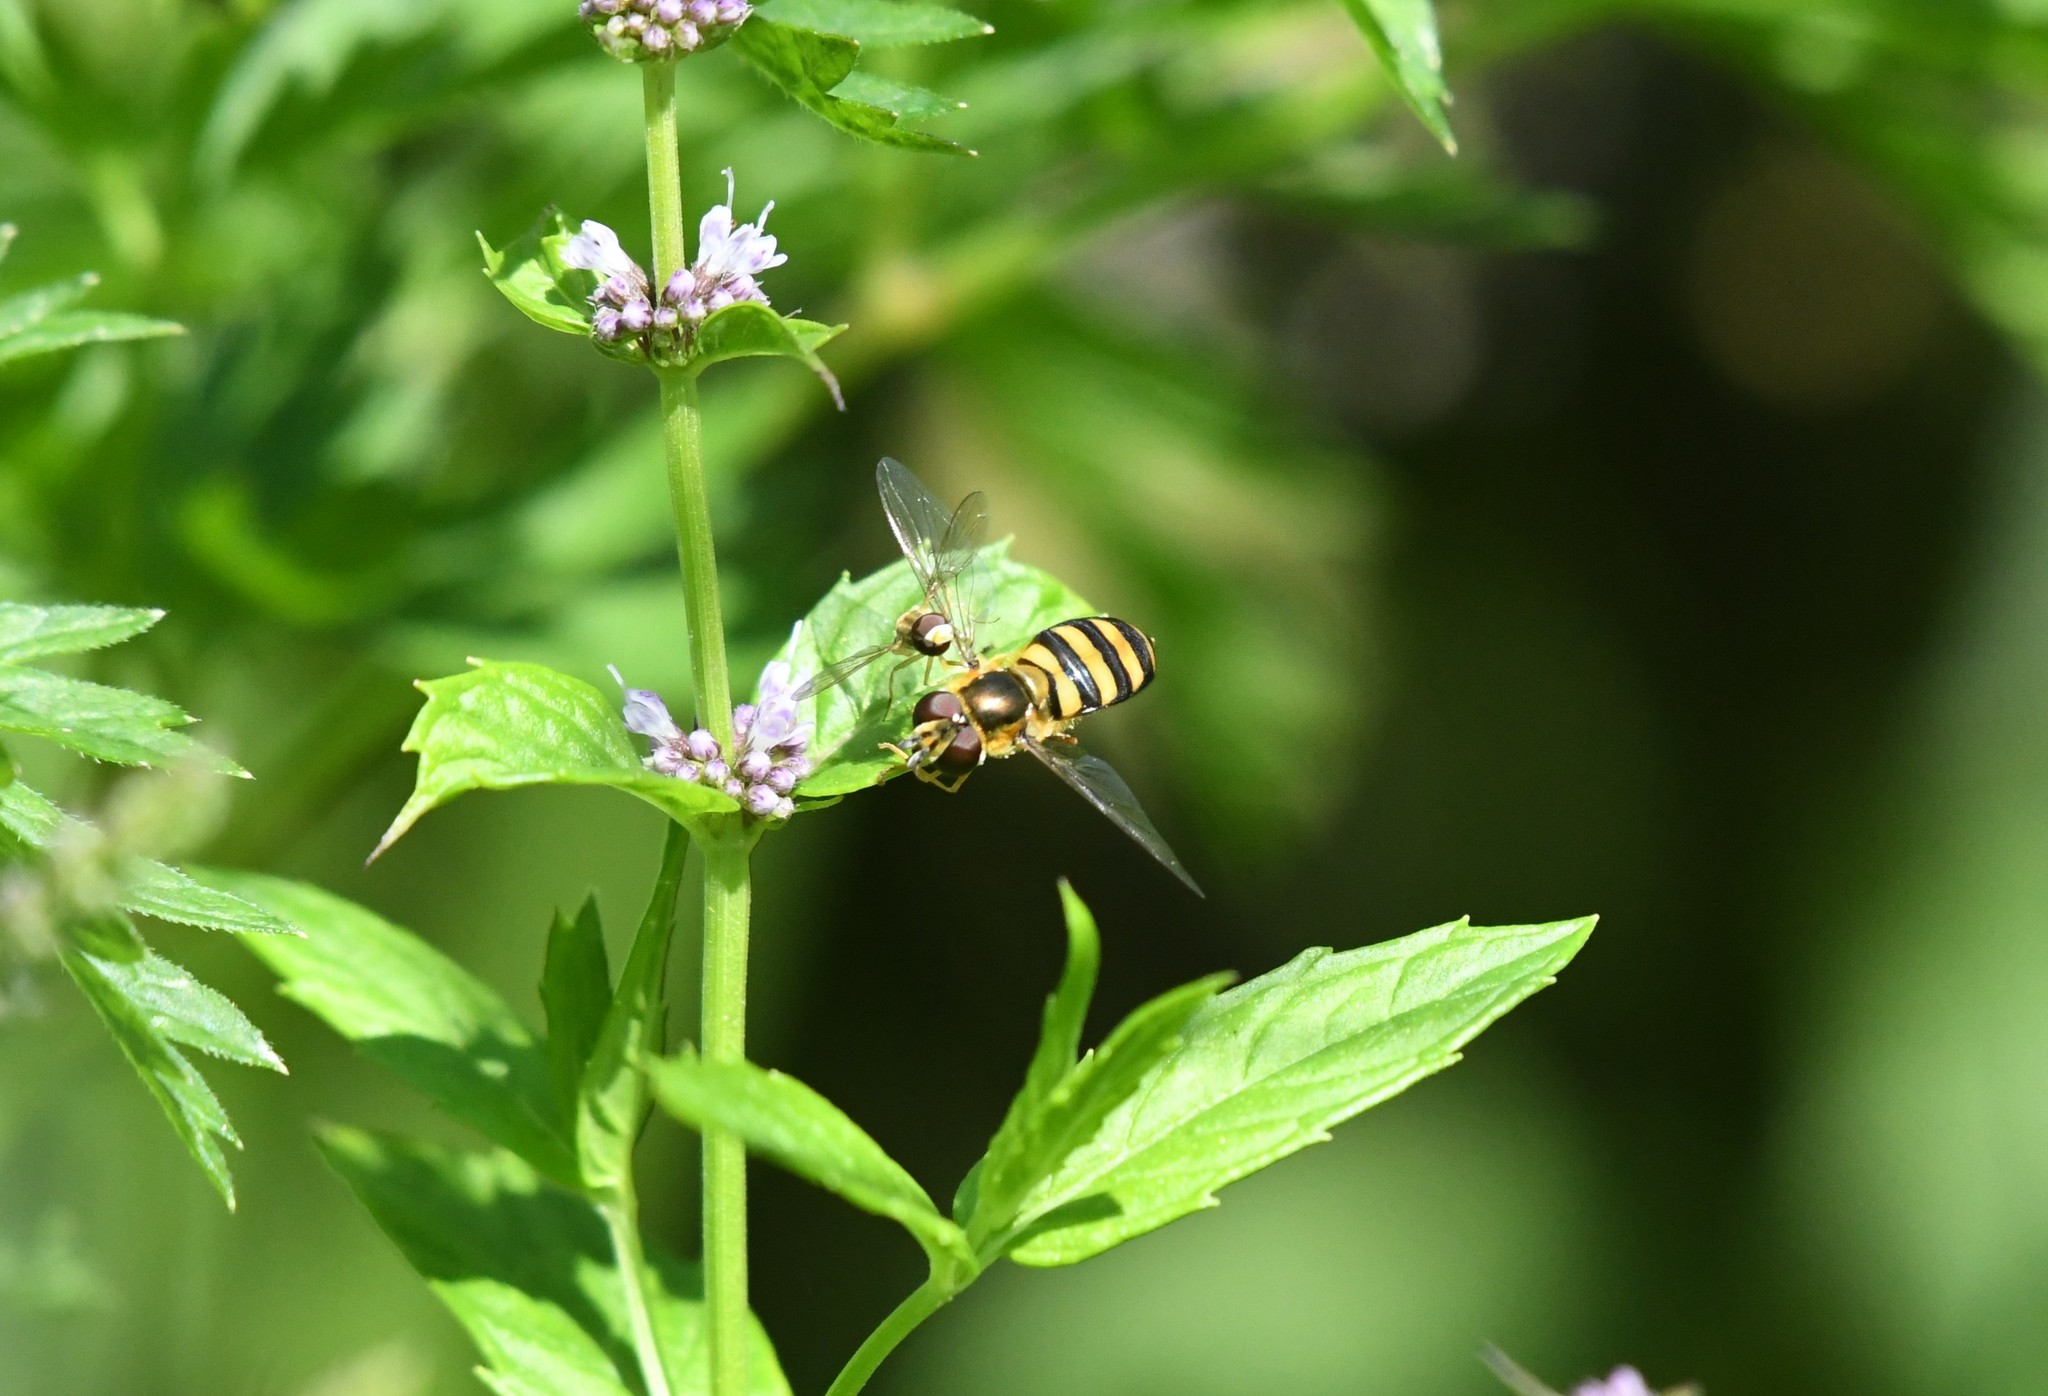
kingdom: Animalia
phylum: Arthropoda
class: Insecta
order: Diptera
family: Syrphidae
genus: Eupeodes
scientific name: Eupeodes
